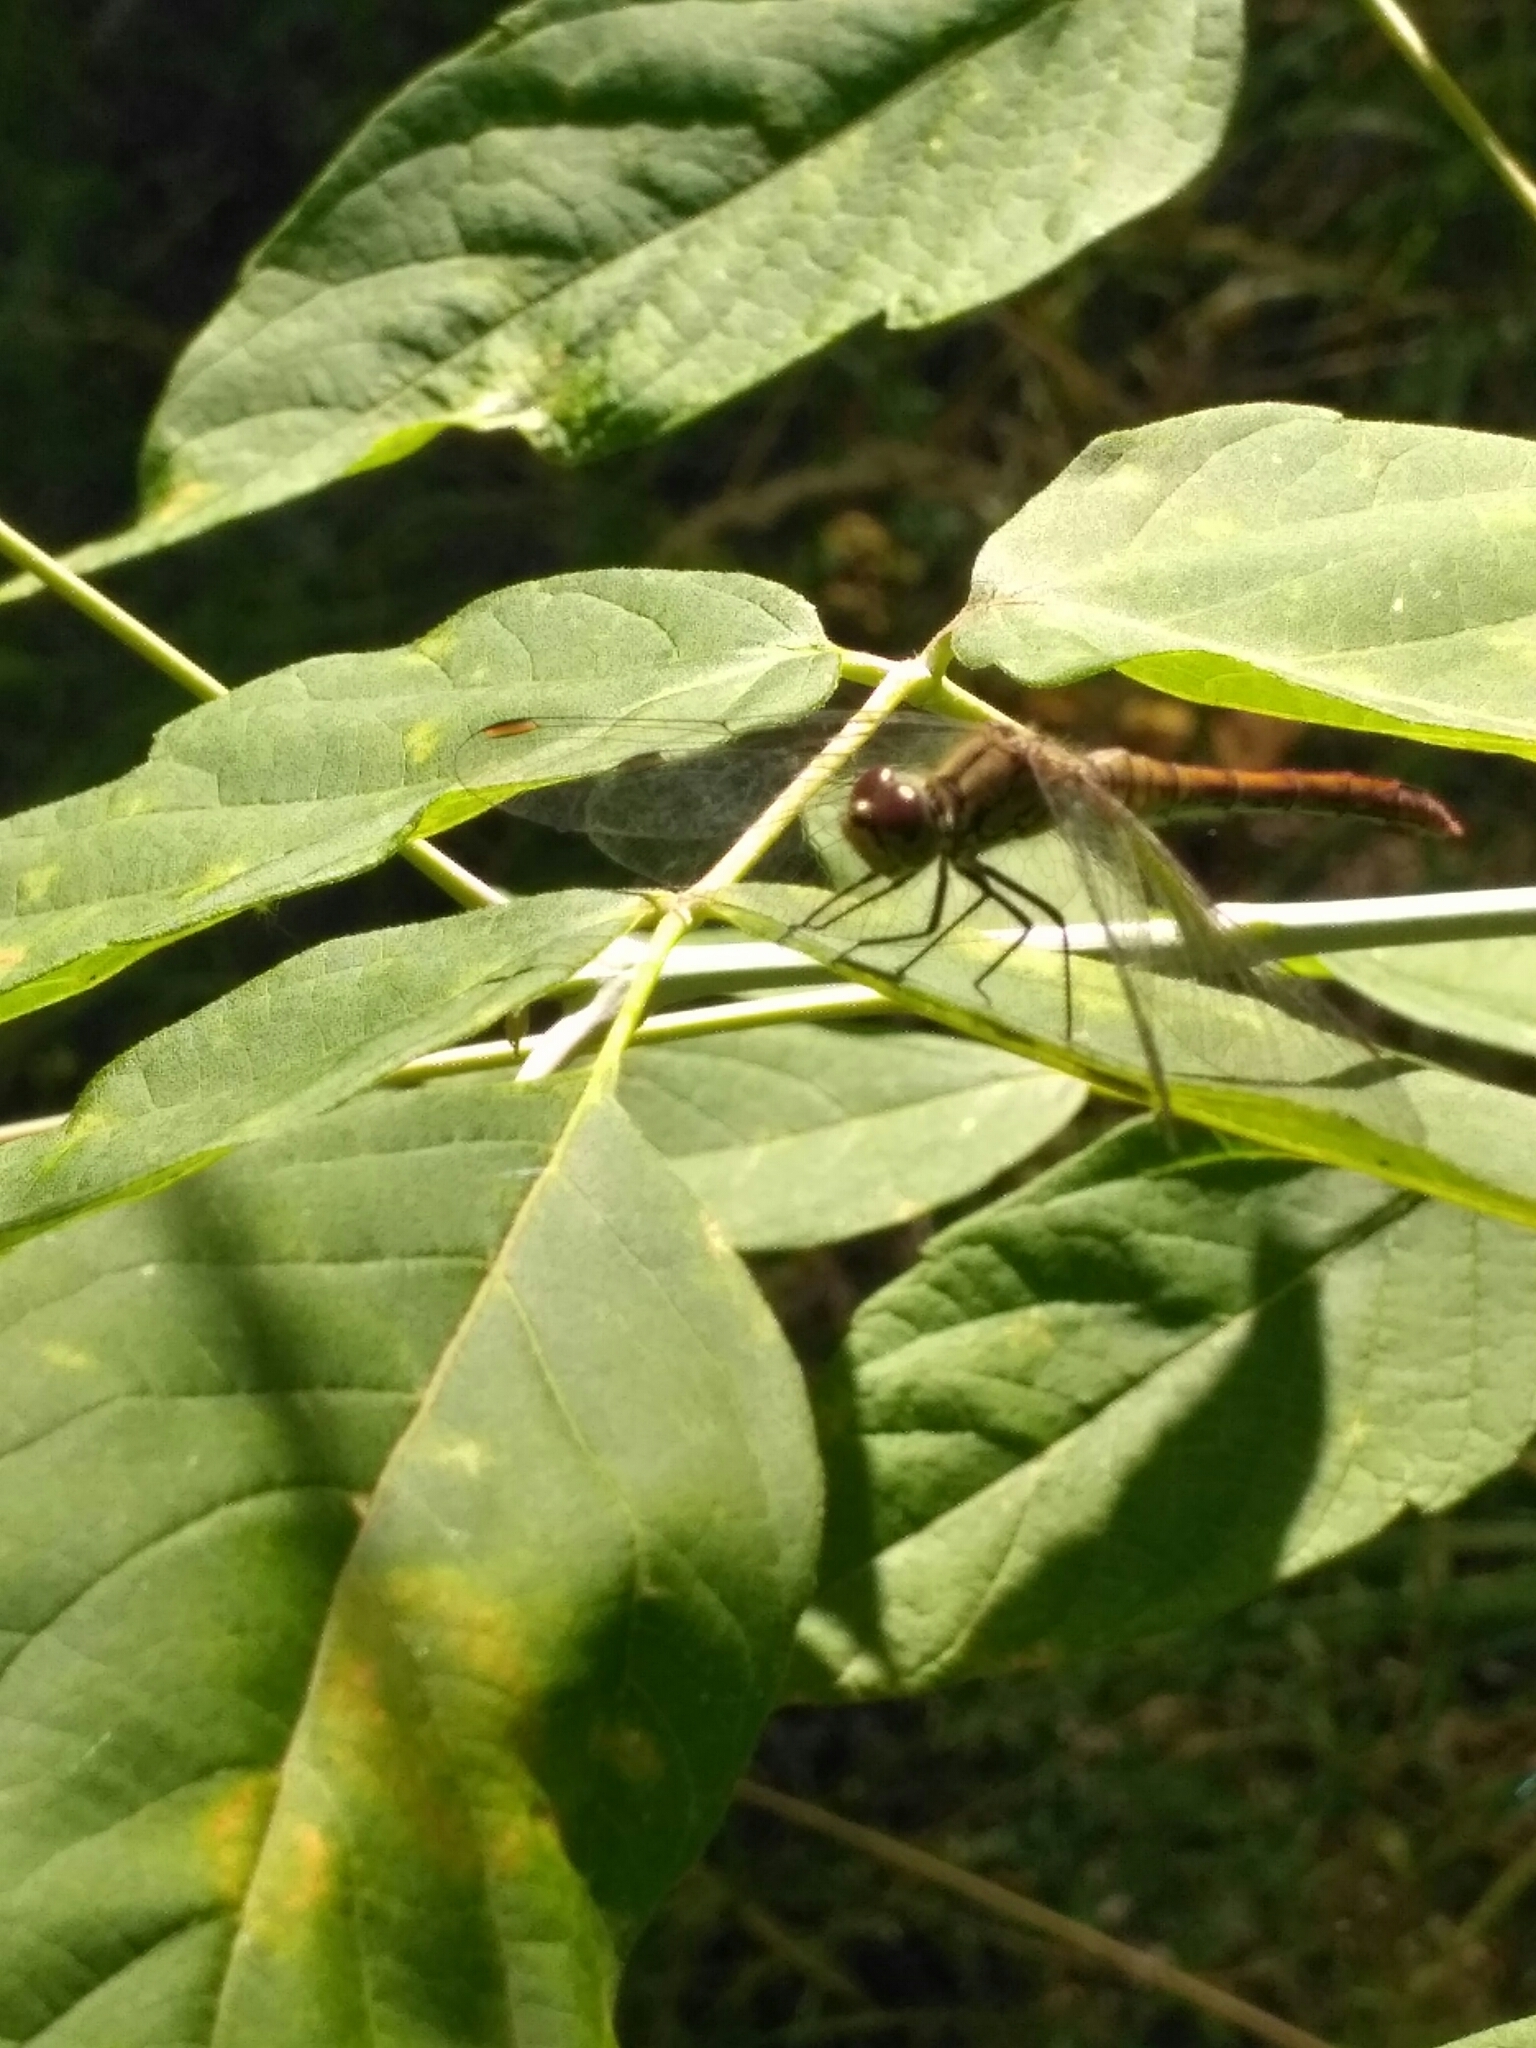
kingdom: Animalia
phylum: Arthropoda
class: Insecta
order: Odonata
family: Libellulidae
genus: Sympetrum
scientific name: Sympetrum sanguineum
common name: Ruddy darter
